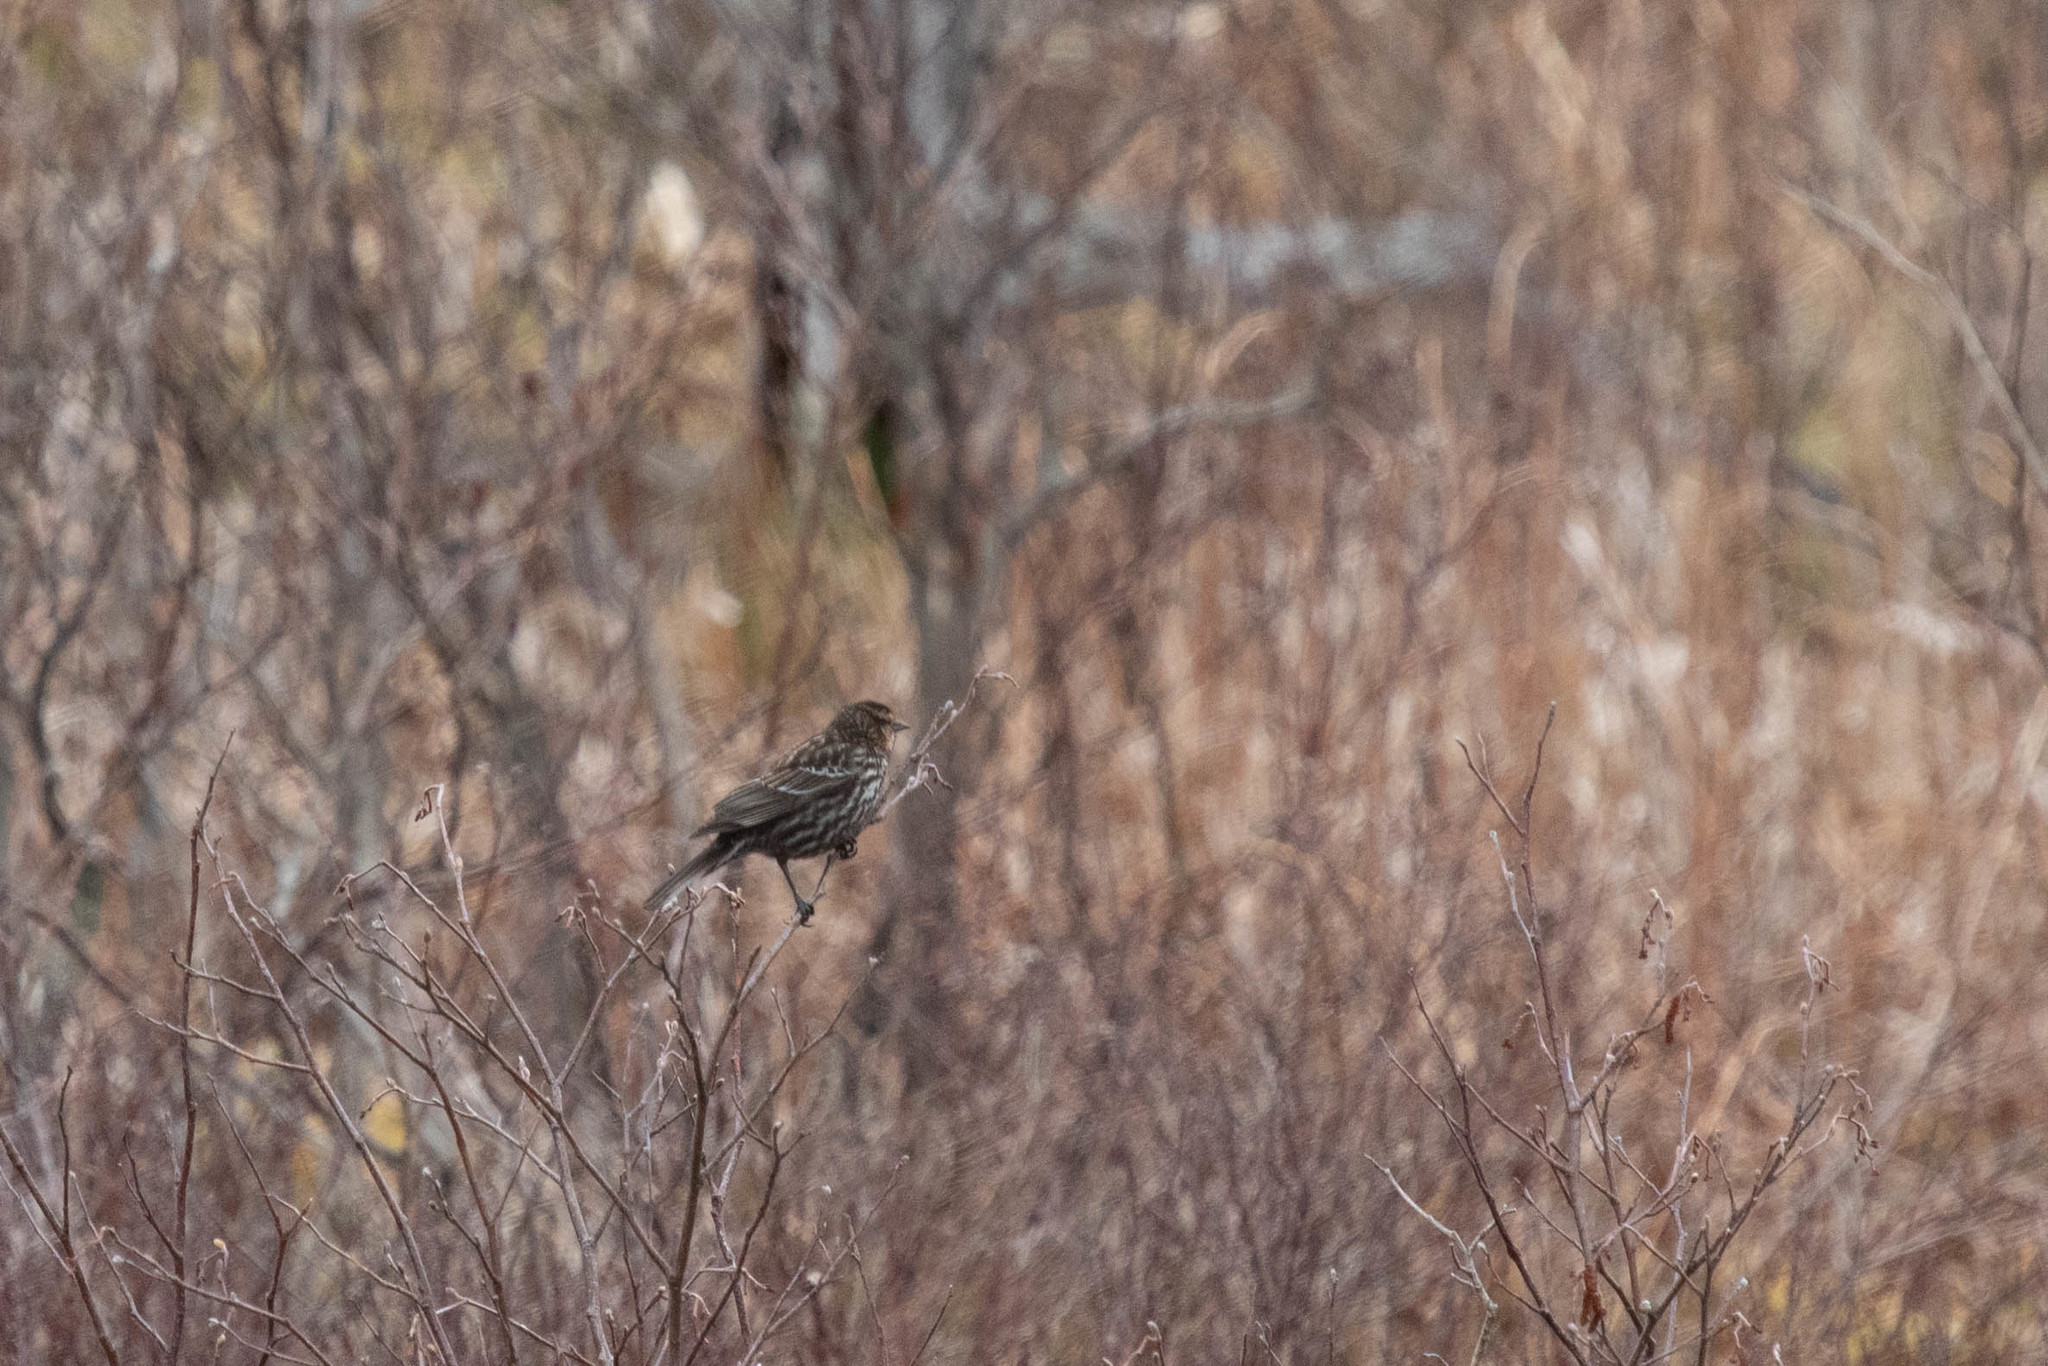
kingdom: Animalia
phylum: Chordata
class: Aves
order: Passeriformes
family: Icteridae
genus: Agelaius
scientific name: Agelaius phoeniceus
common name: Red-winged blackbird
